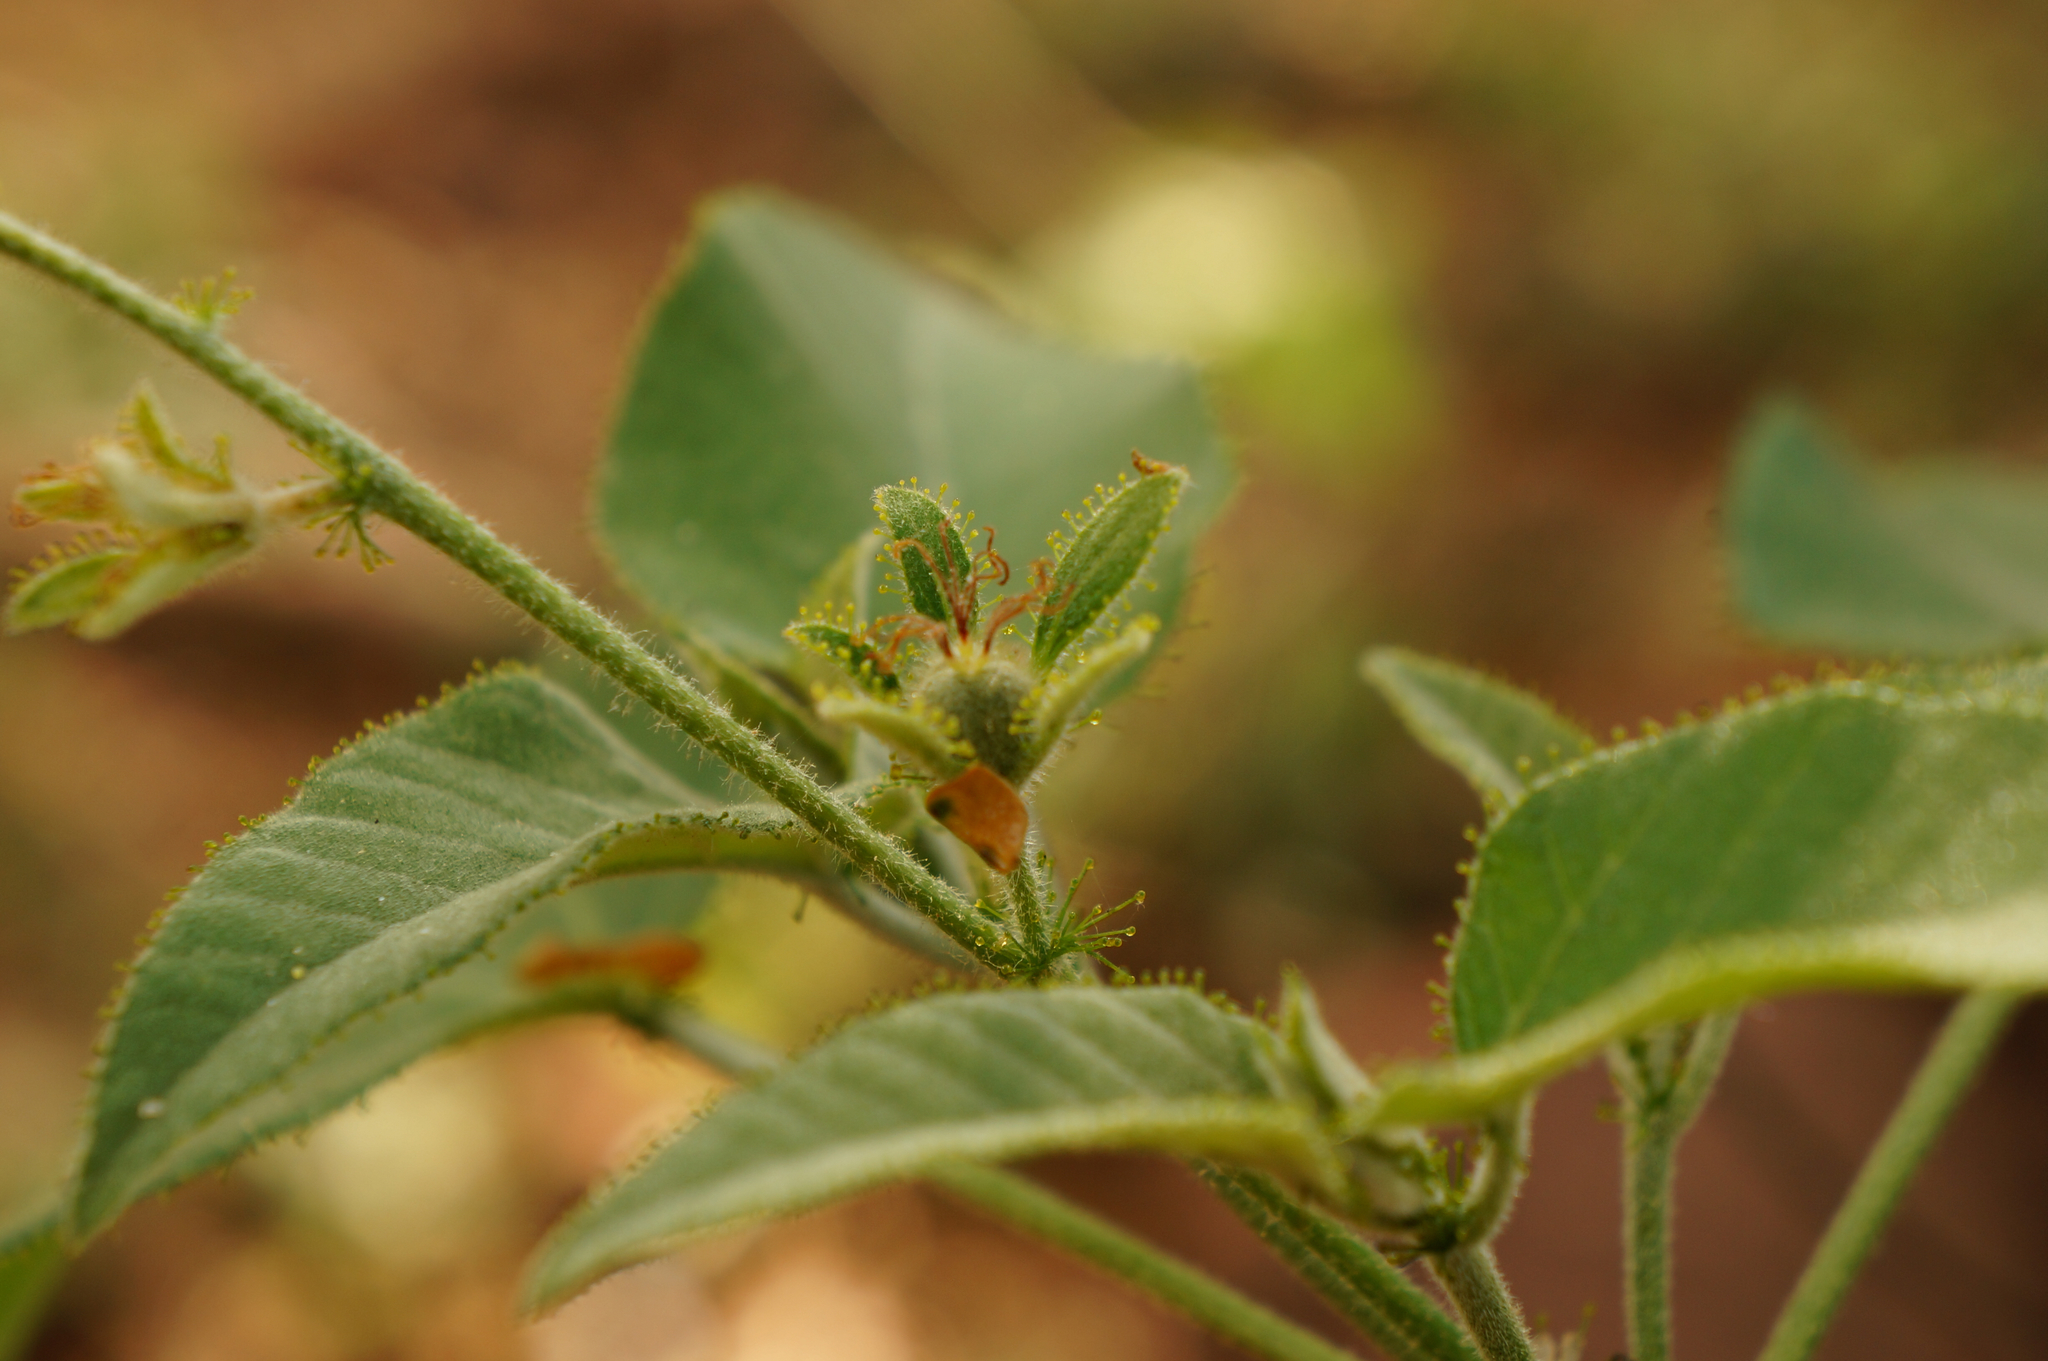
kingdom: Plantae
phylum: Tracheophyta
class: Magnoliopsida
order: Malpighiales
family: Euphorbiaceae
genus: Croton
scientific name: Croton ciliatoglandulifer
